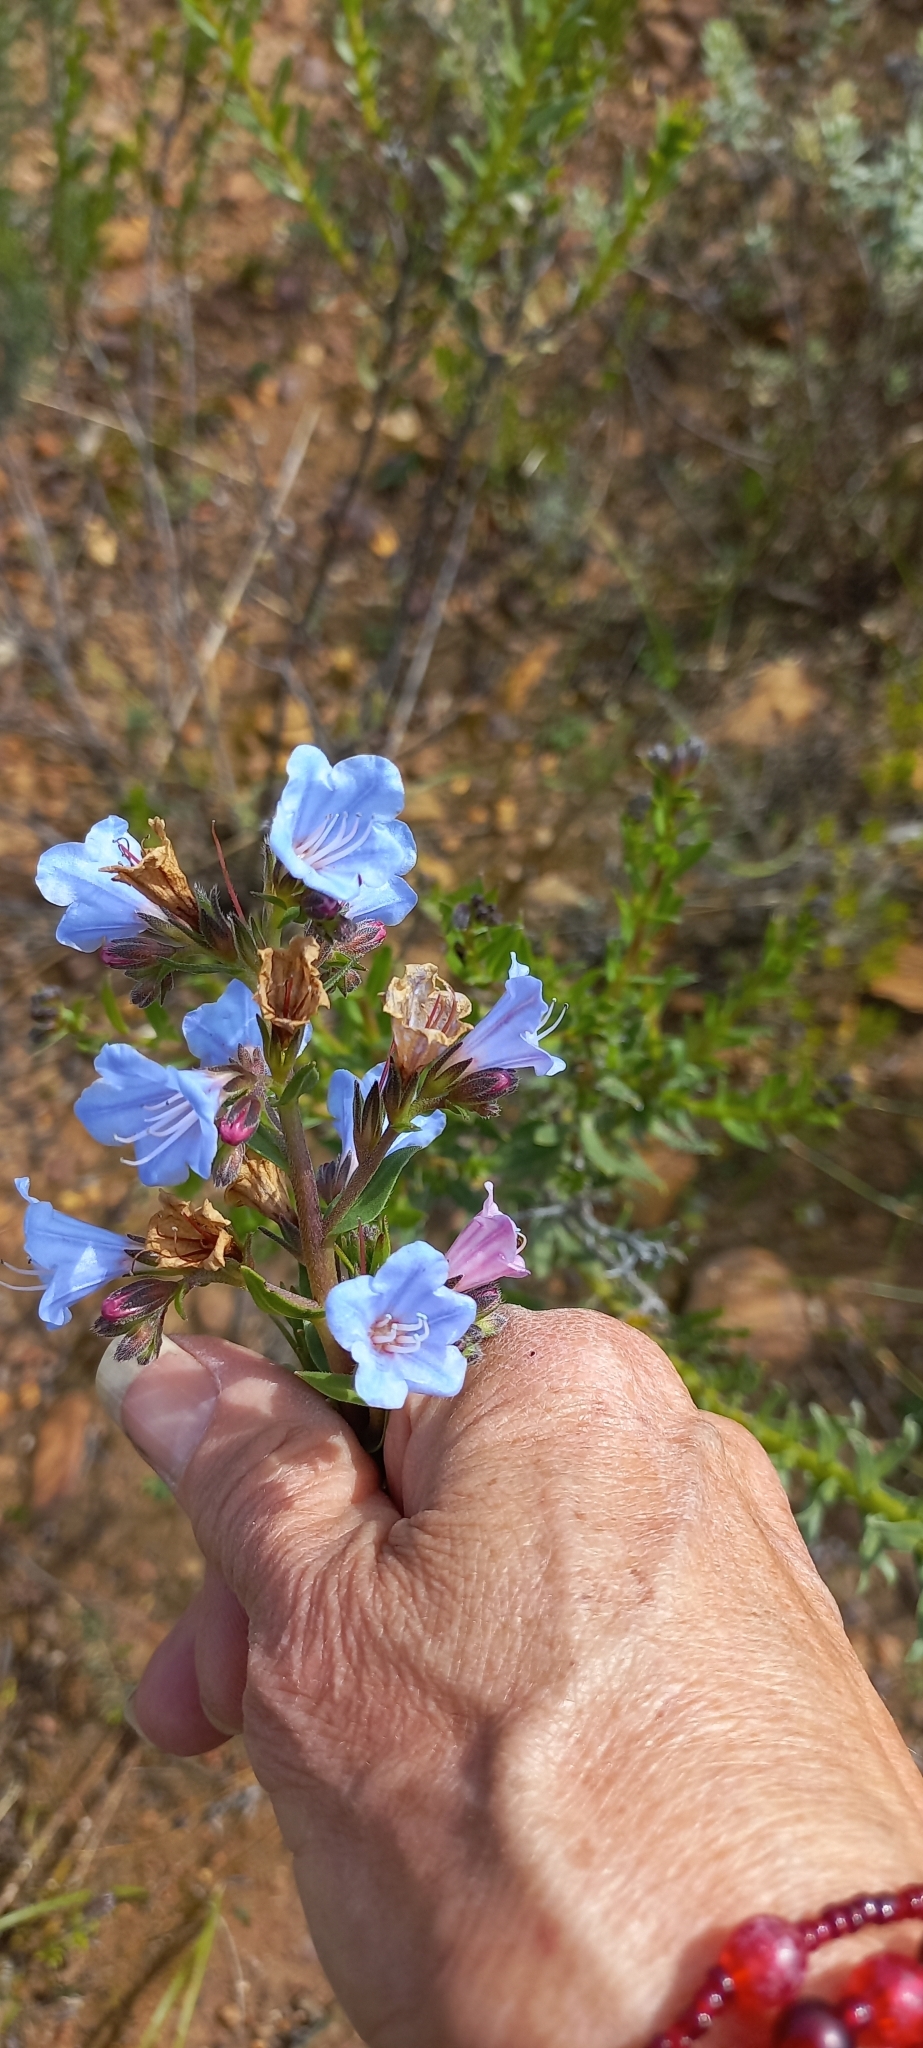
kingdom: Plantae
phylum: Tracheophyta
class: Magnoliopsida
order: Boraginales
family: Boraginaceae
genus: Lobostemon
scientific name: Lobostemon fruticosus
